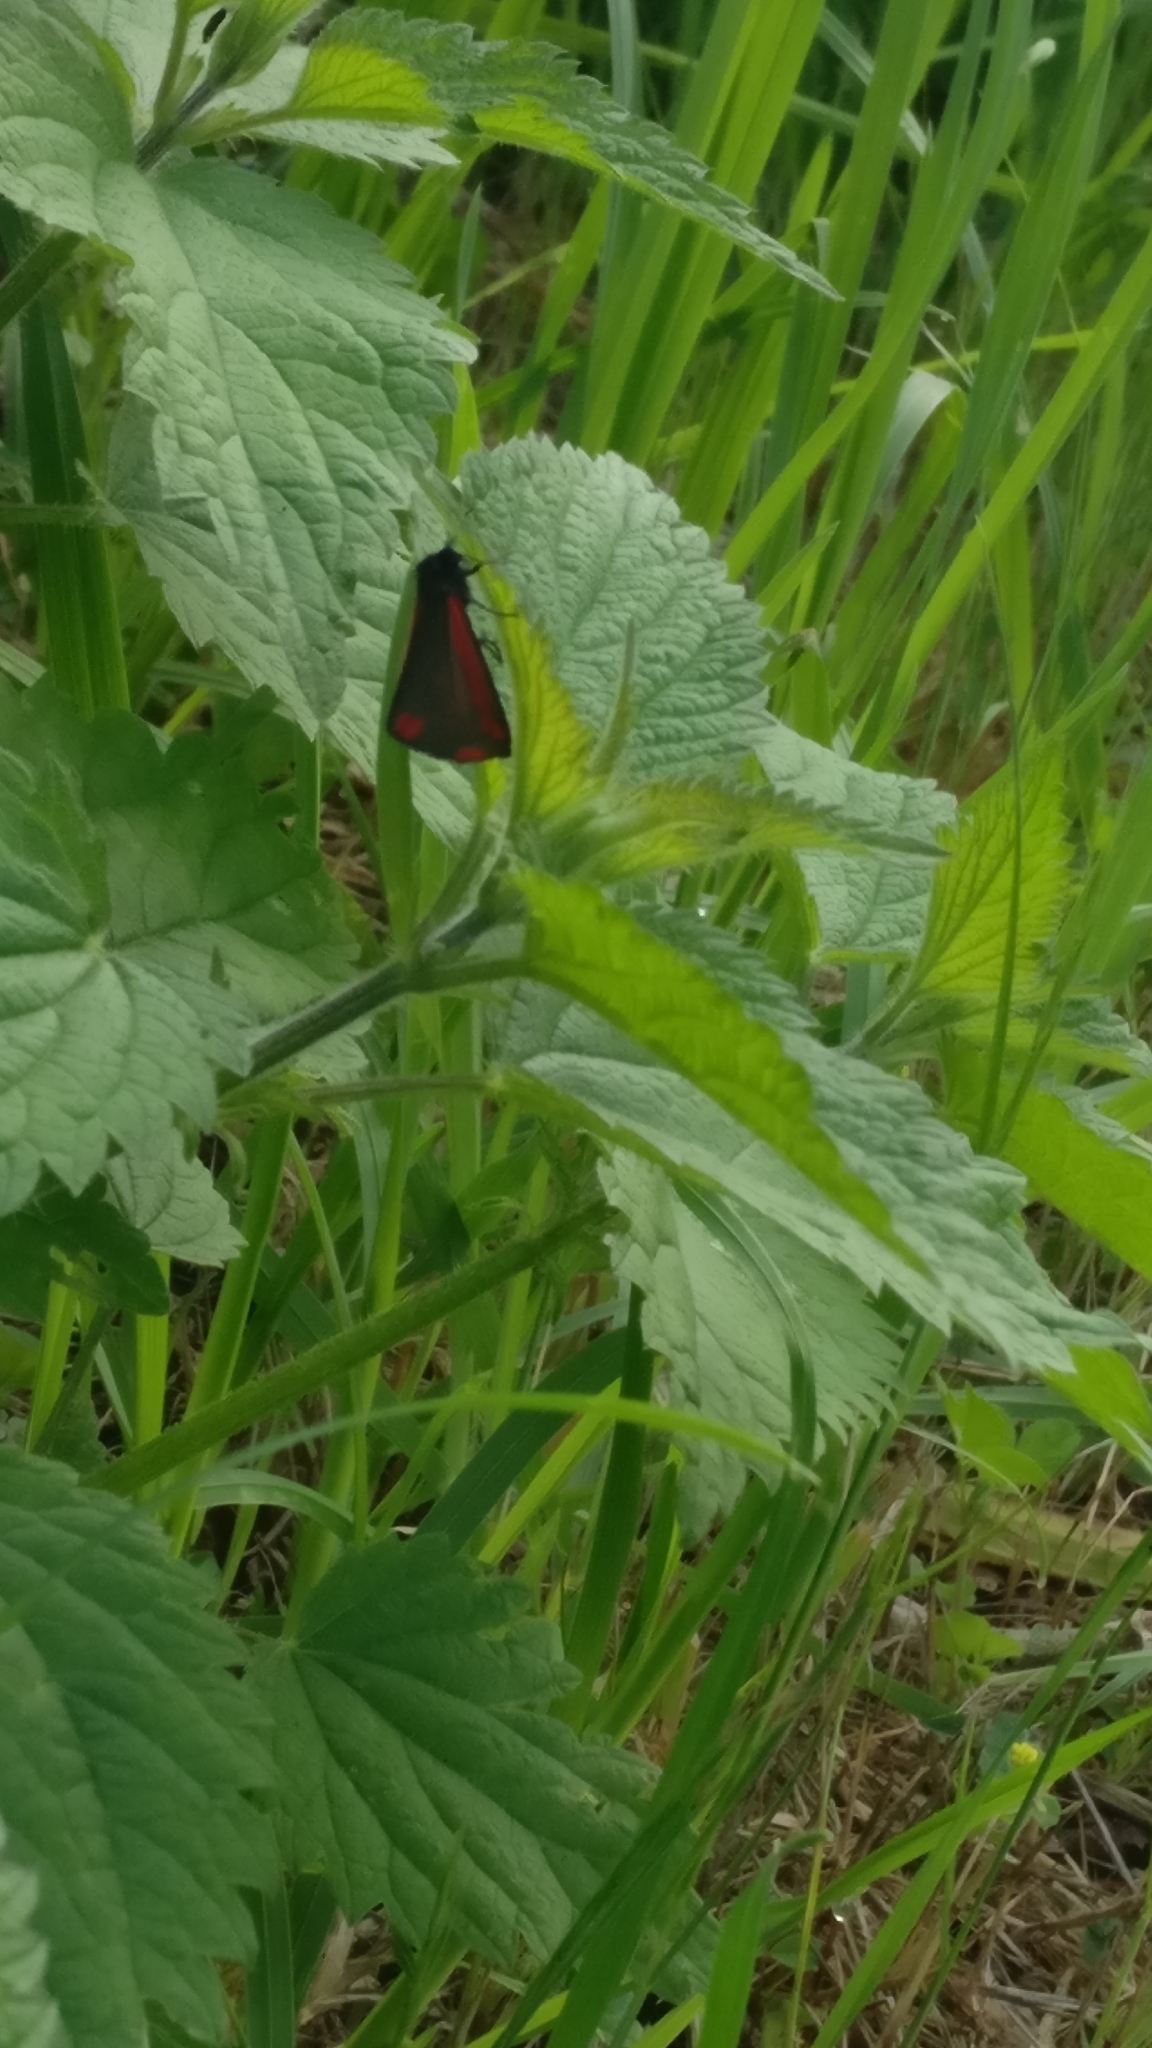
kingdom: Animalia
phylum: Arthropoda
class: Insecta
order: Lepidoptera
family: Erebidae
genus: Tyria
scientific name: Tyria jacobaeae
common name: Cinnabar
